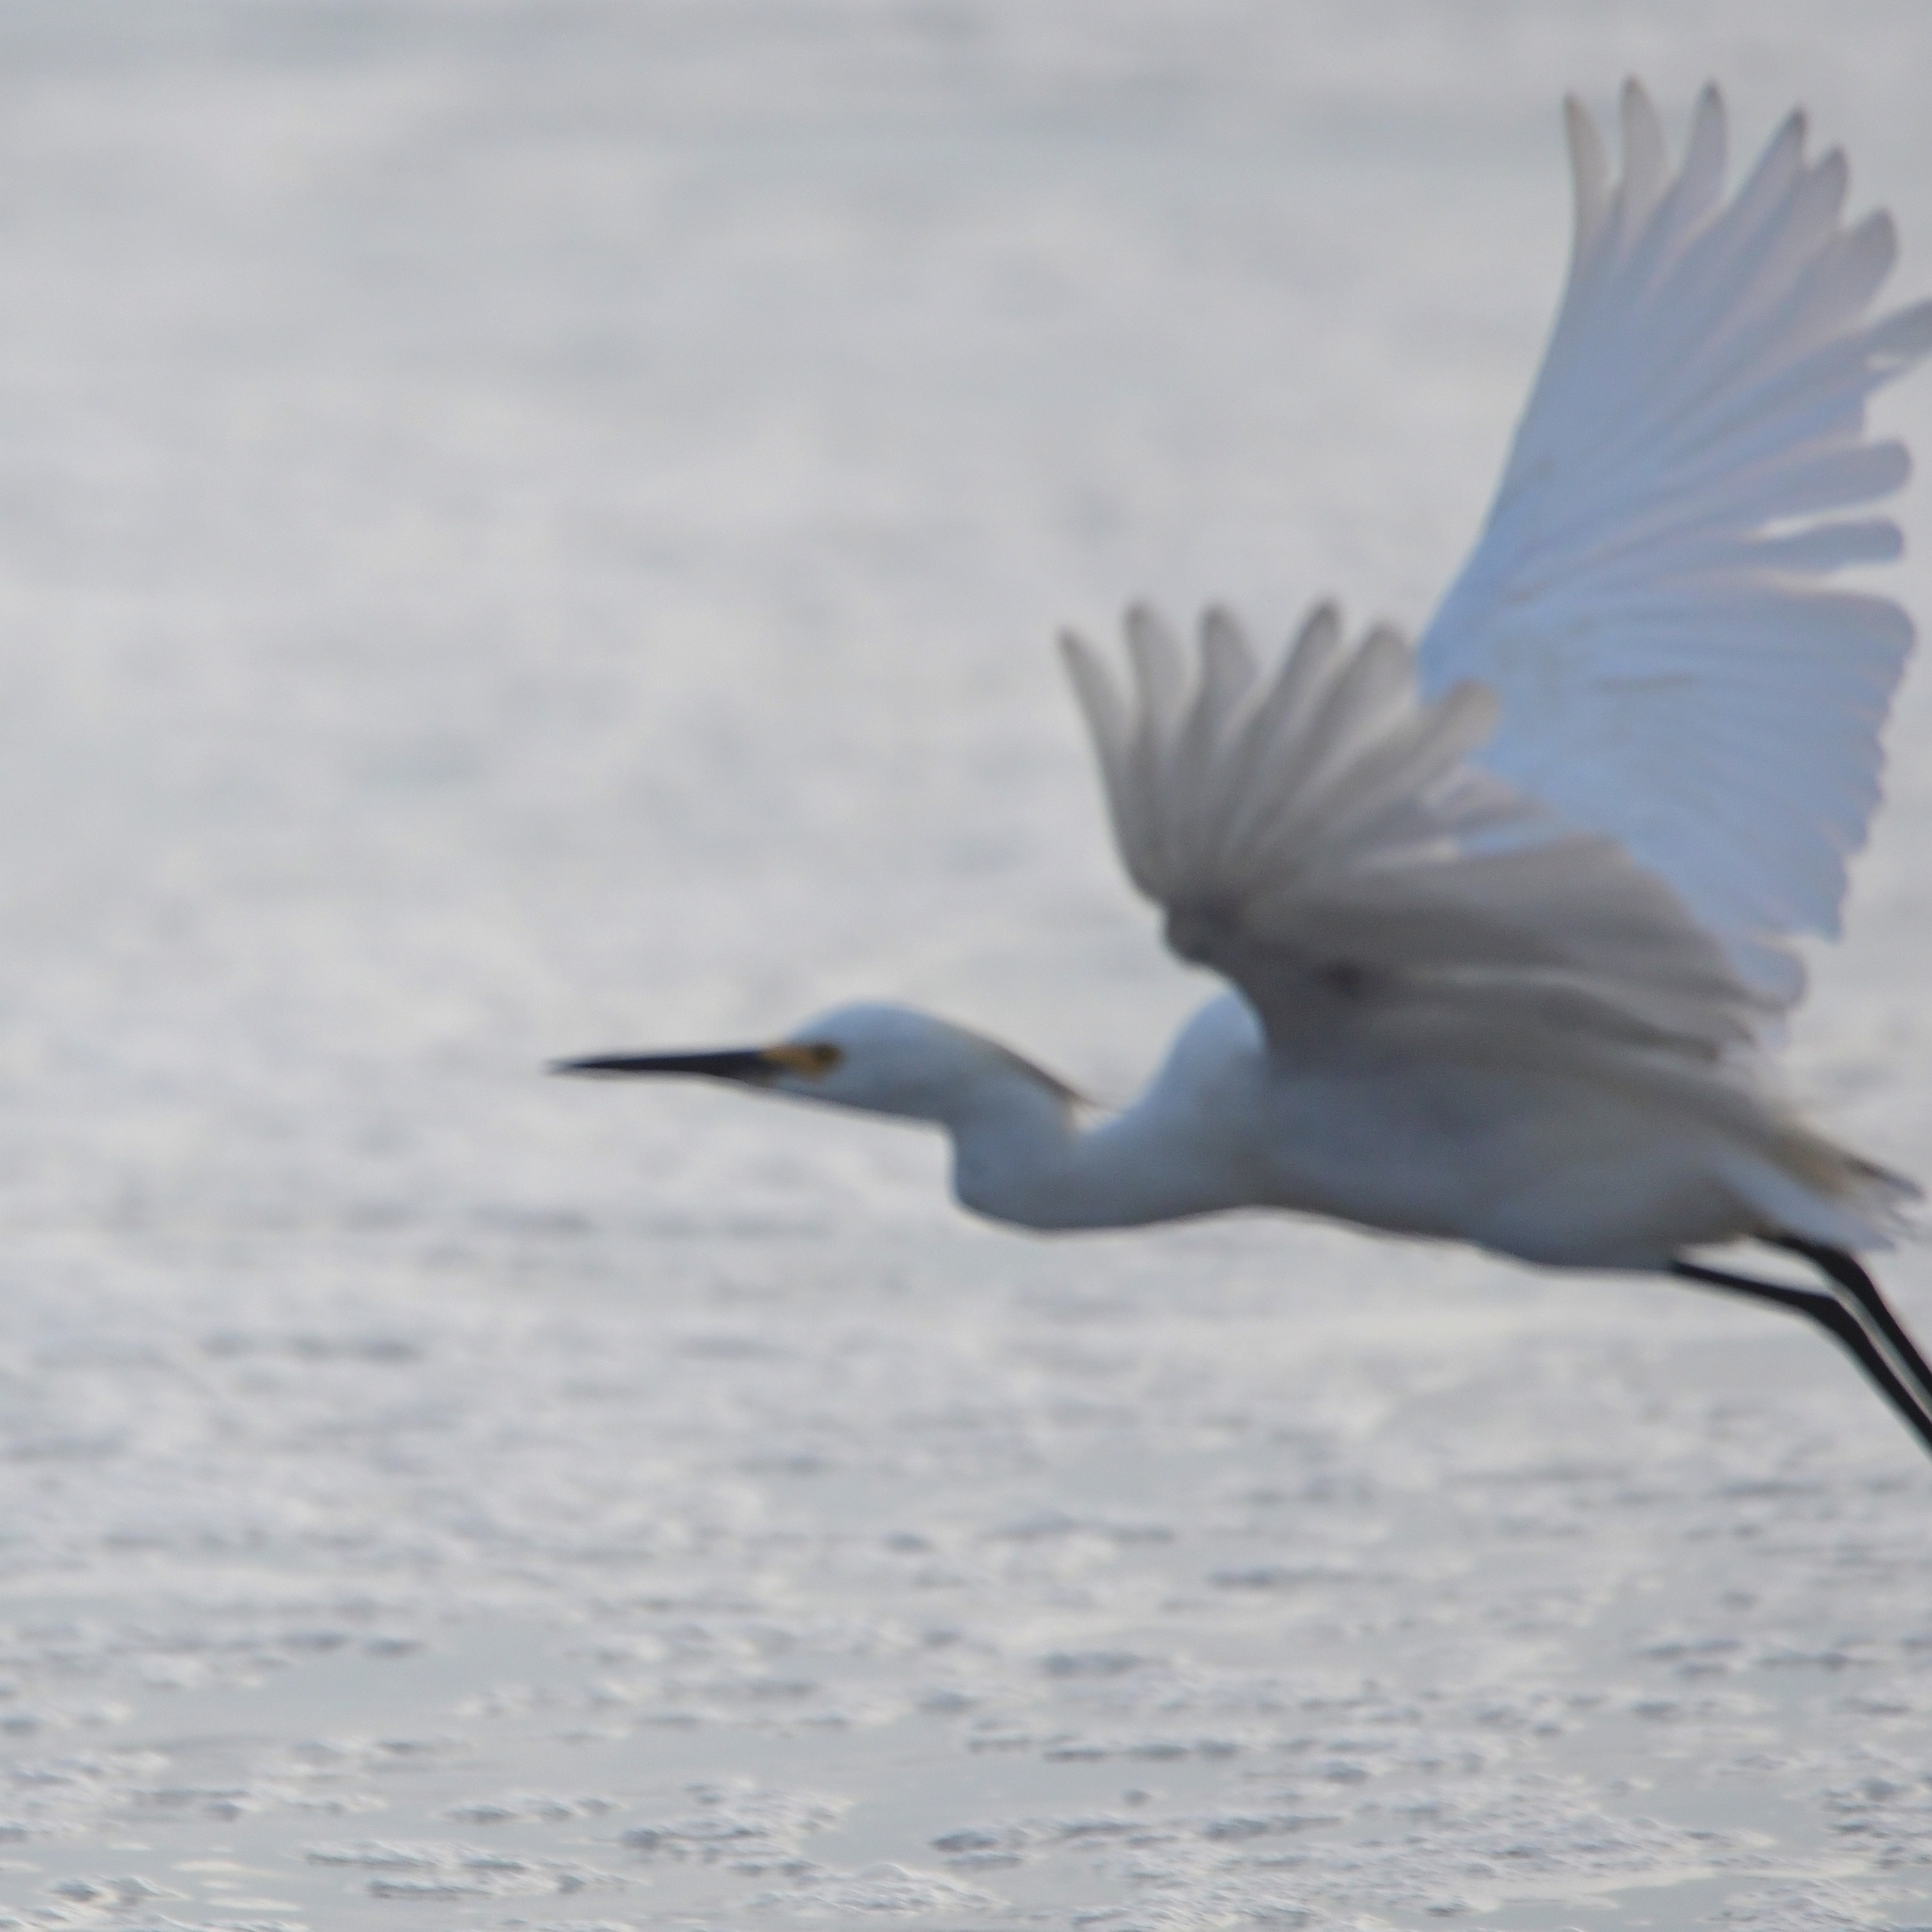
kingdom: Animalia
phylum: Chordata
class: Aves
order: Pelecaniformes
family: Ardeidae
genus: Egretta
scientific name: Egretta thula
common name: Snowy egret
